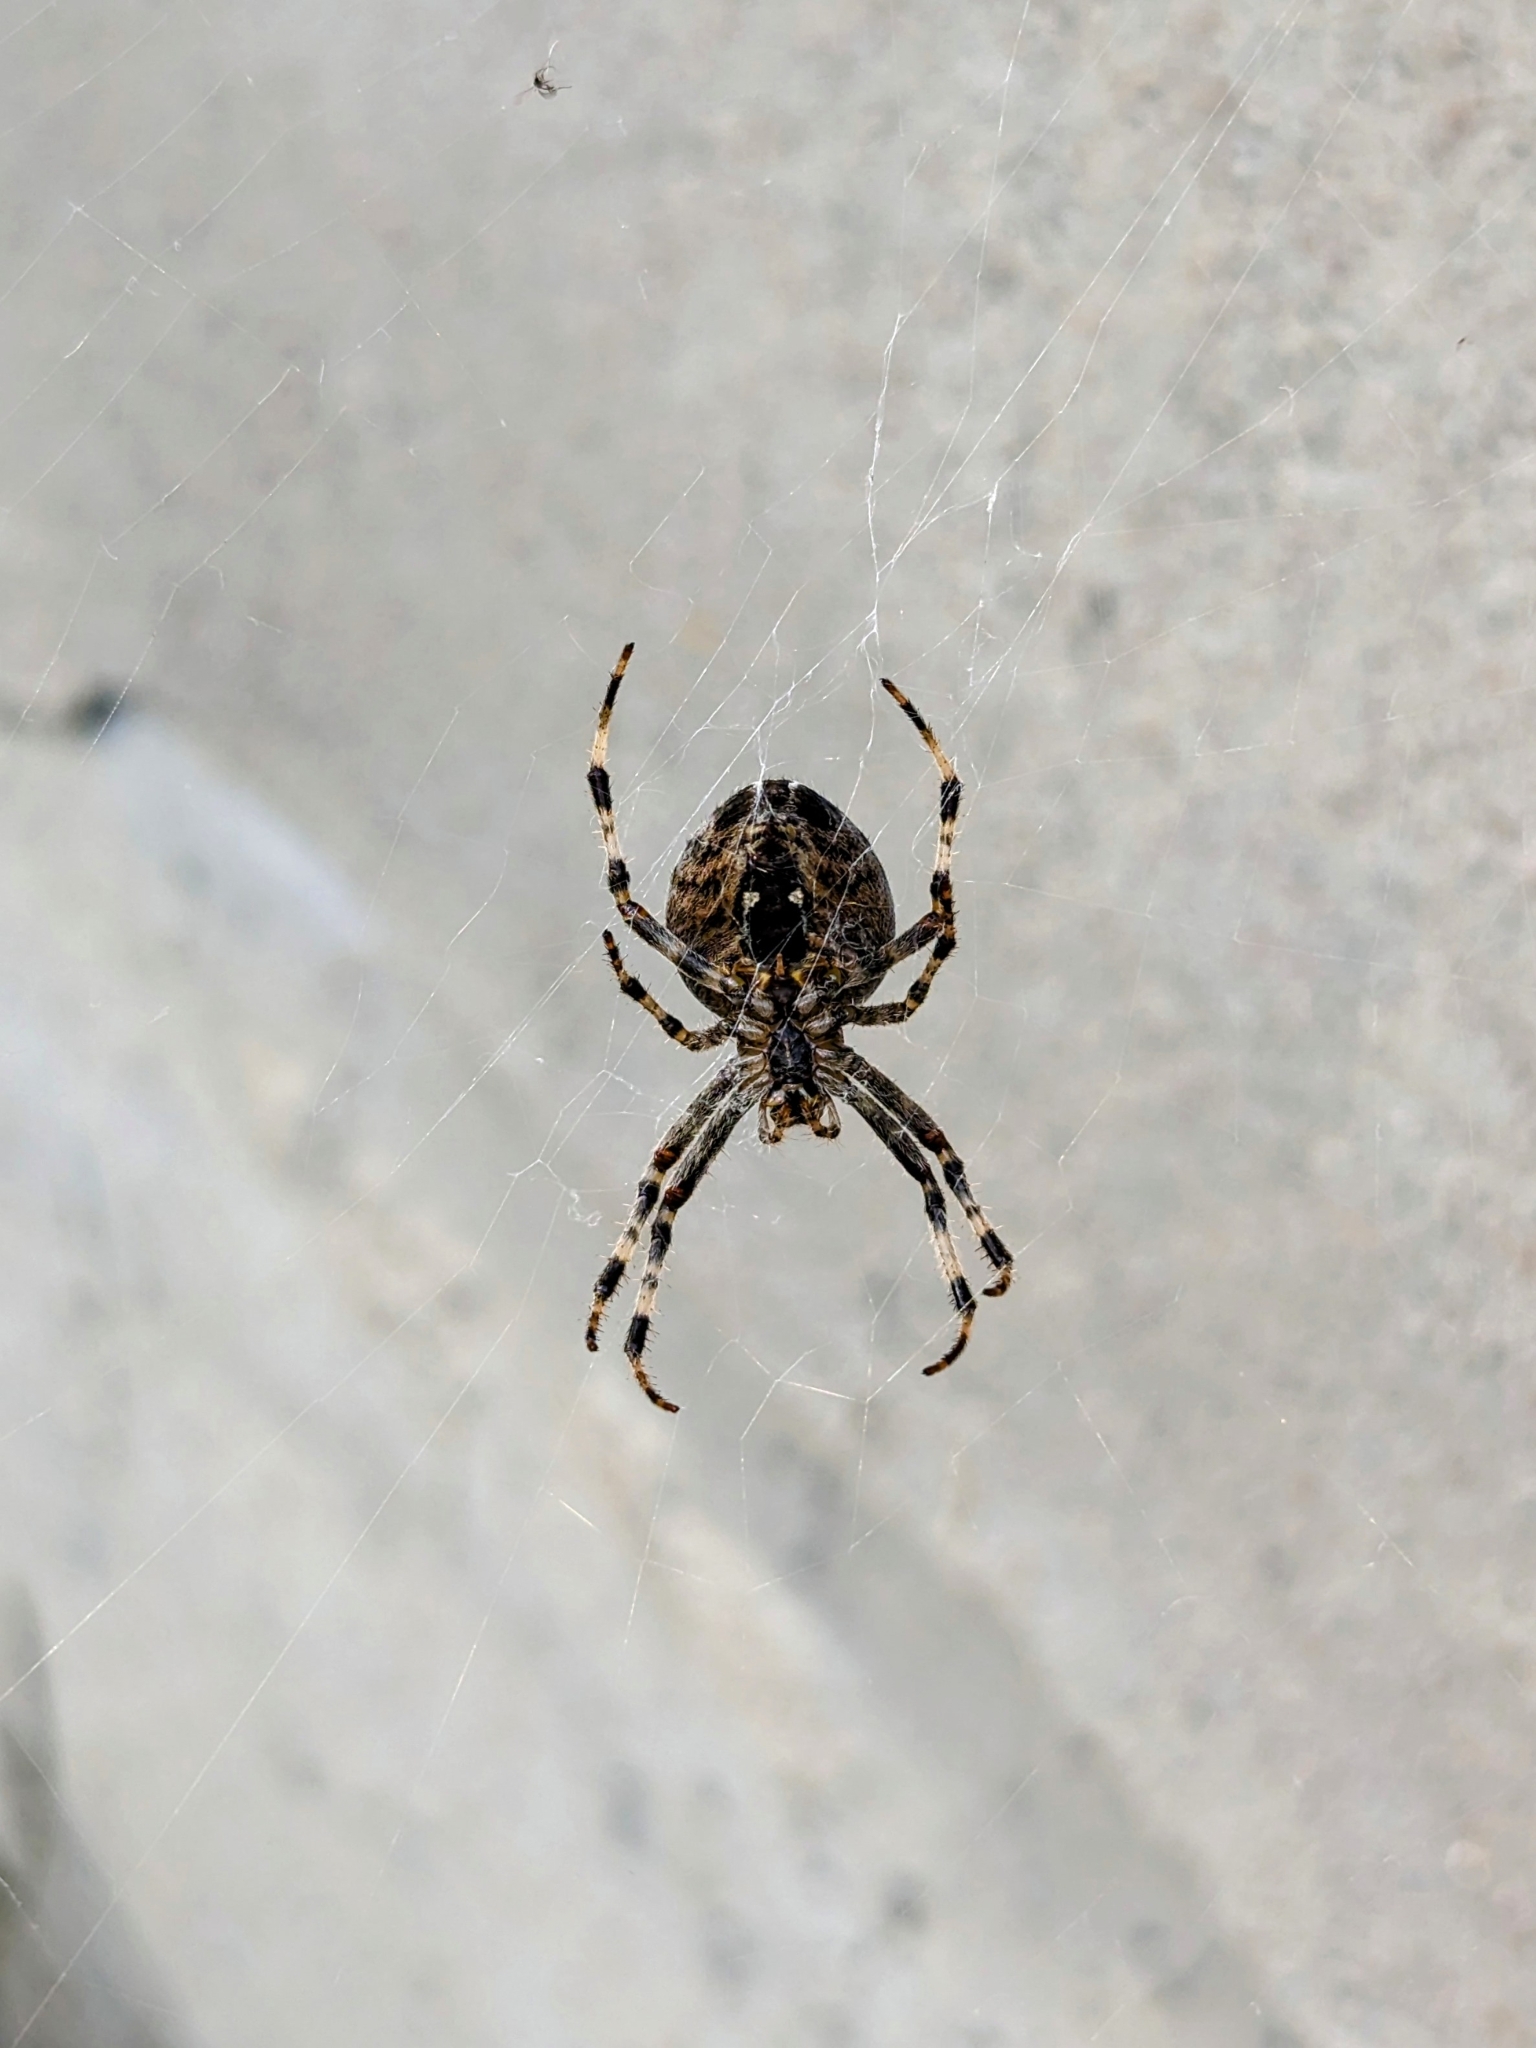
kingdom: Animalia
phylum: Arthropoda
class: Arachnida
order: Araneae
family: Araneidae
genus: Araneus
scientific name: Araneus diadematus
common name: Cross orbweaver
